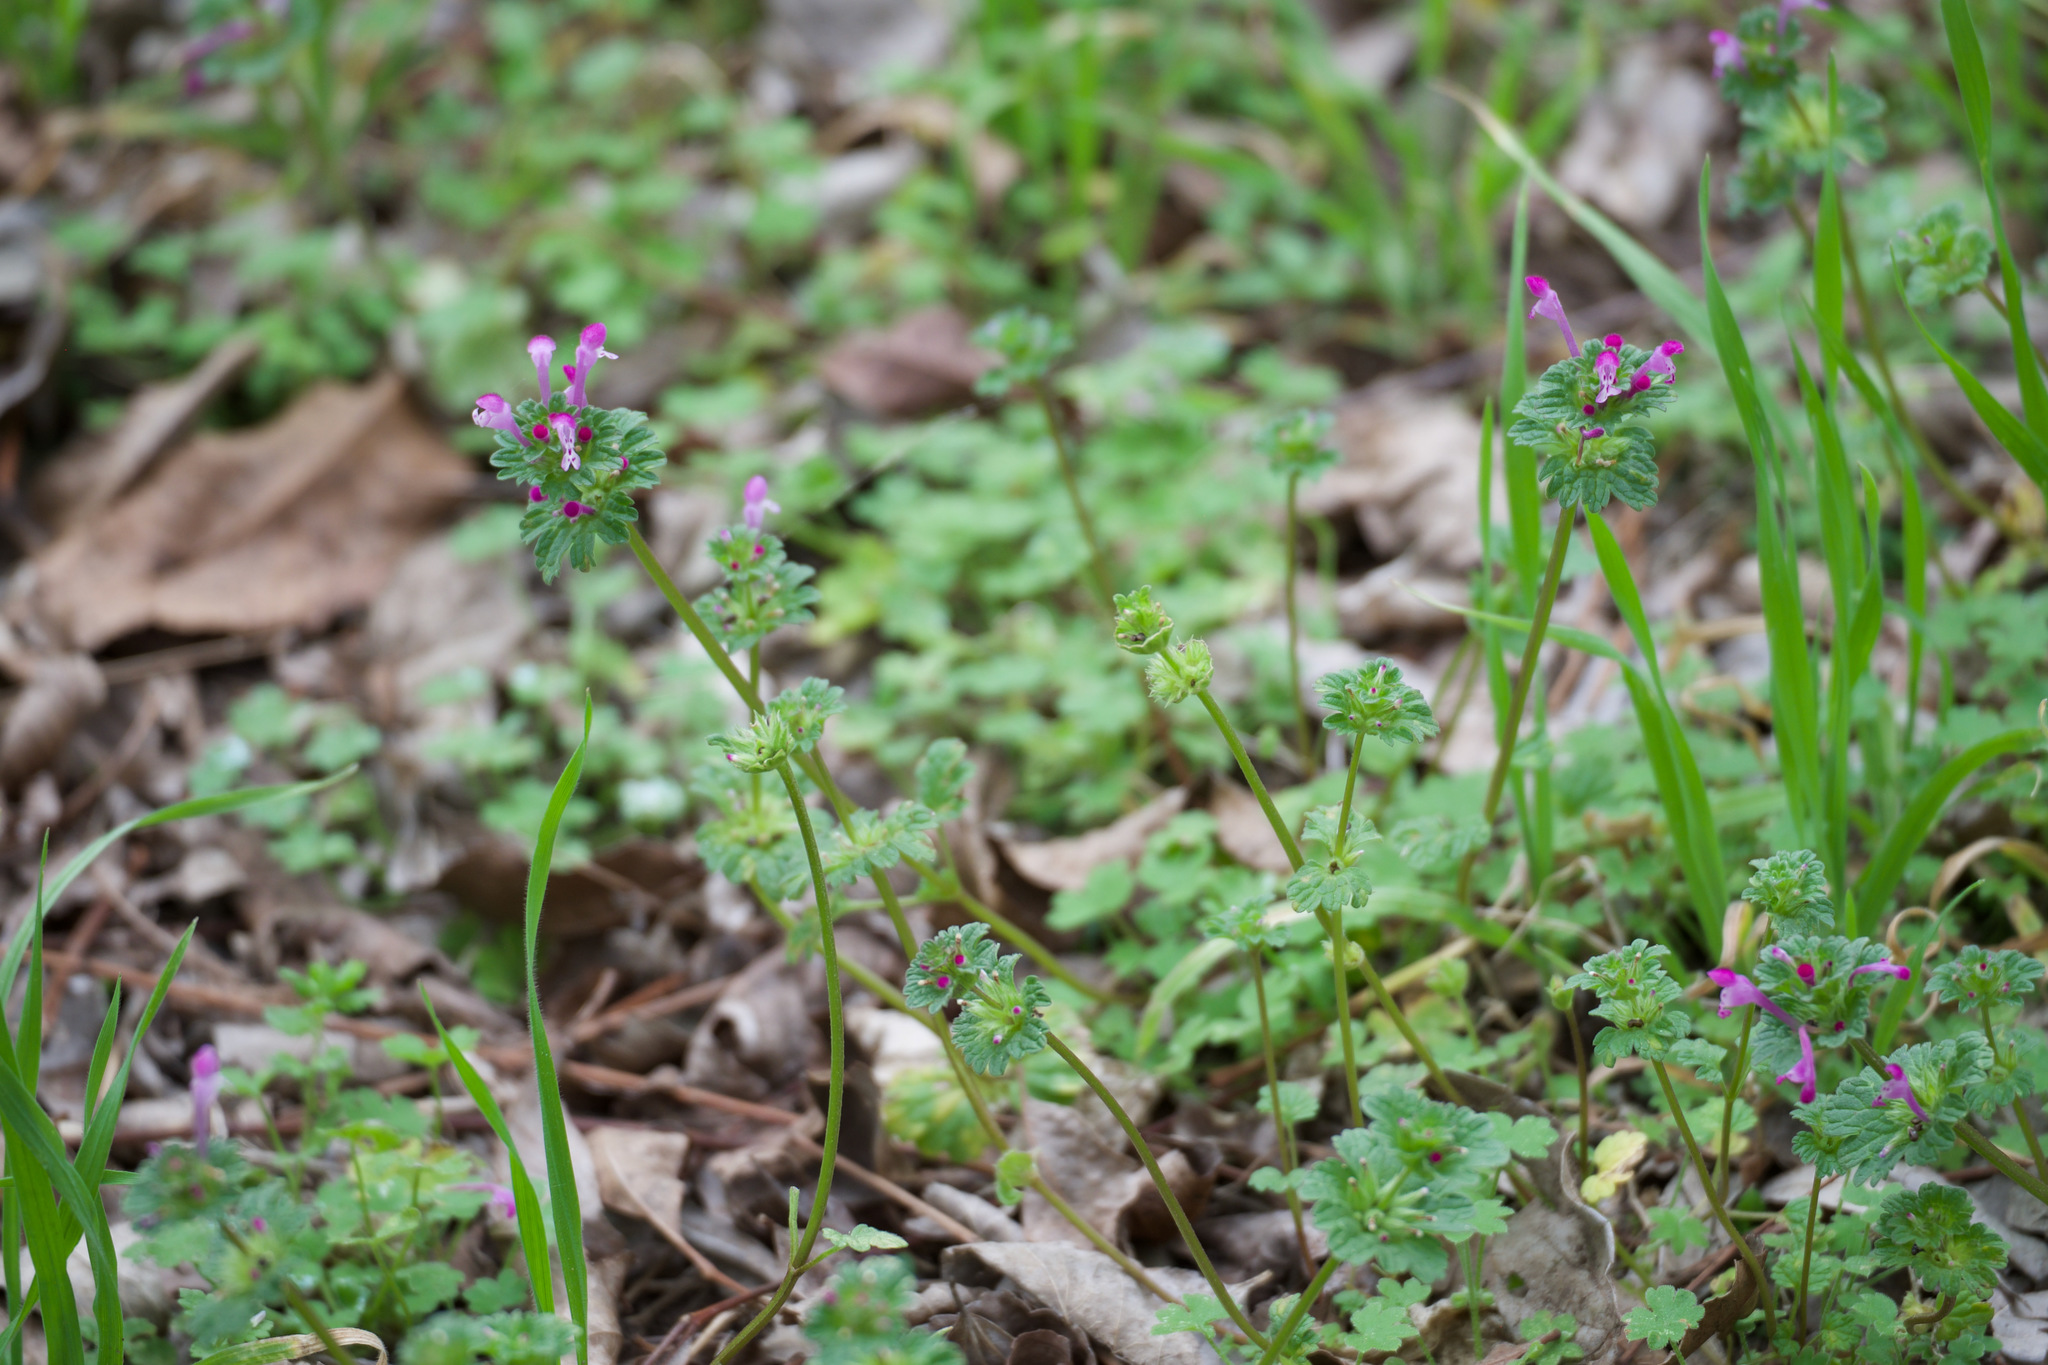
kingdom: Plantae
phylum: Tracheophyta
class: Magnoliopsida
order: Lamiales
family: Lamiaceae
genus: Lamium
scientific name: Lamium amplexicaule
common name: Henbit dead-nettle
